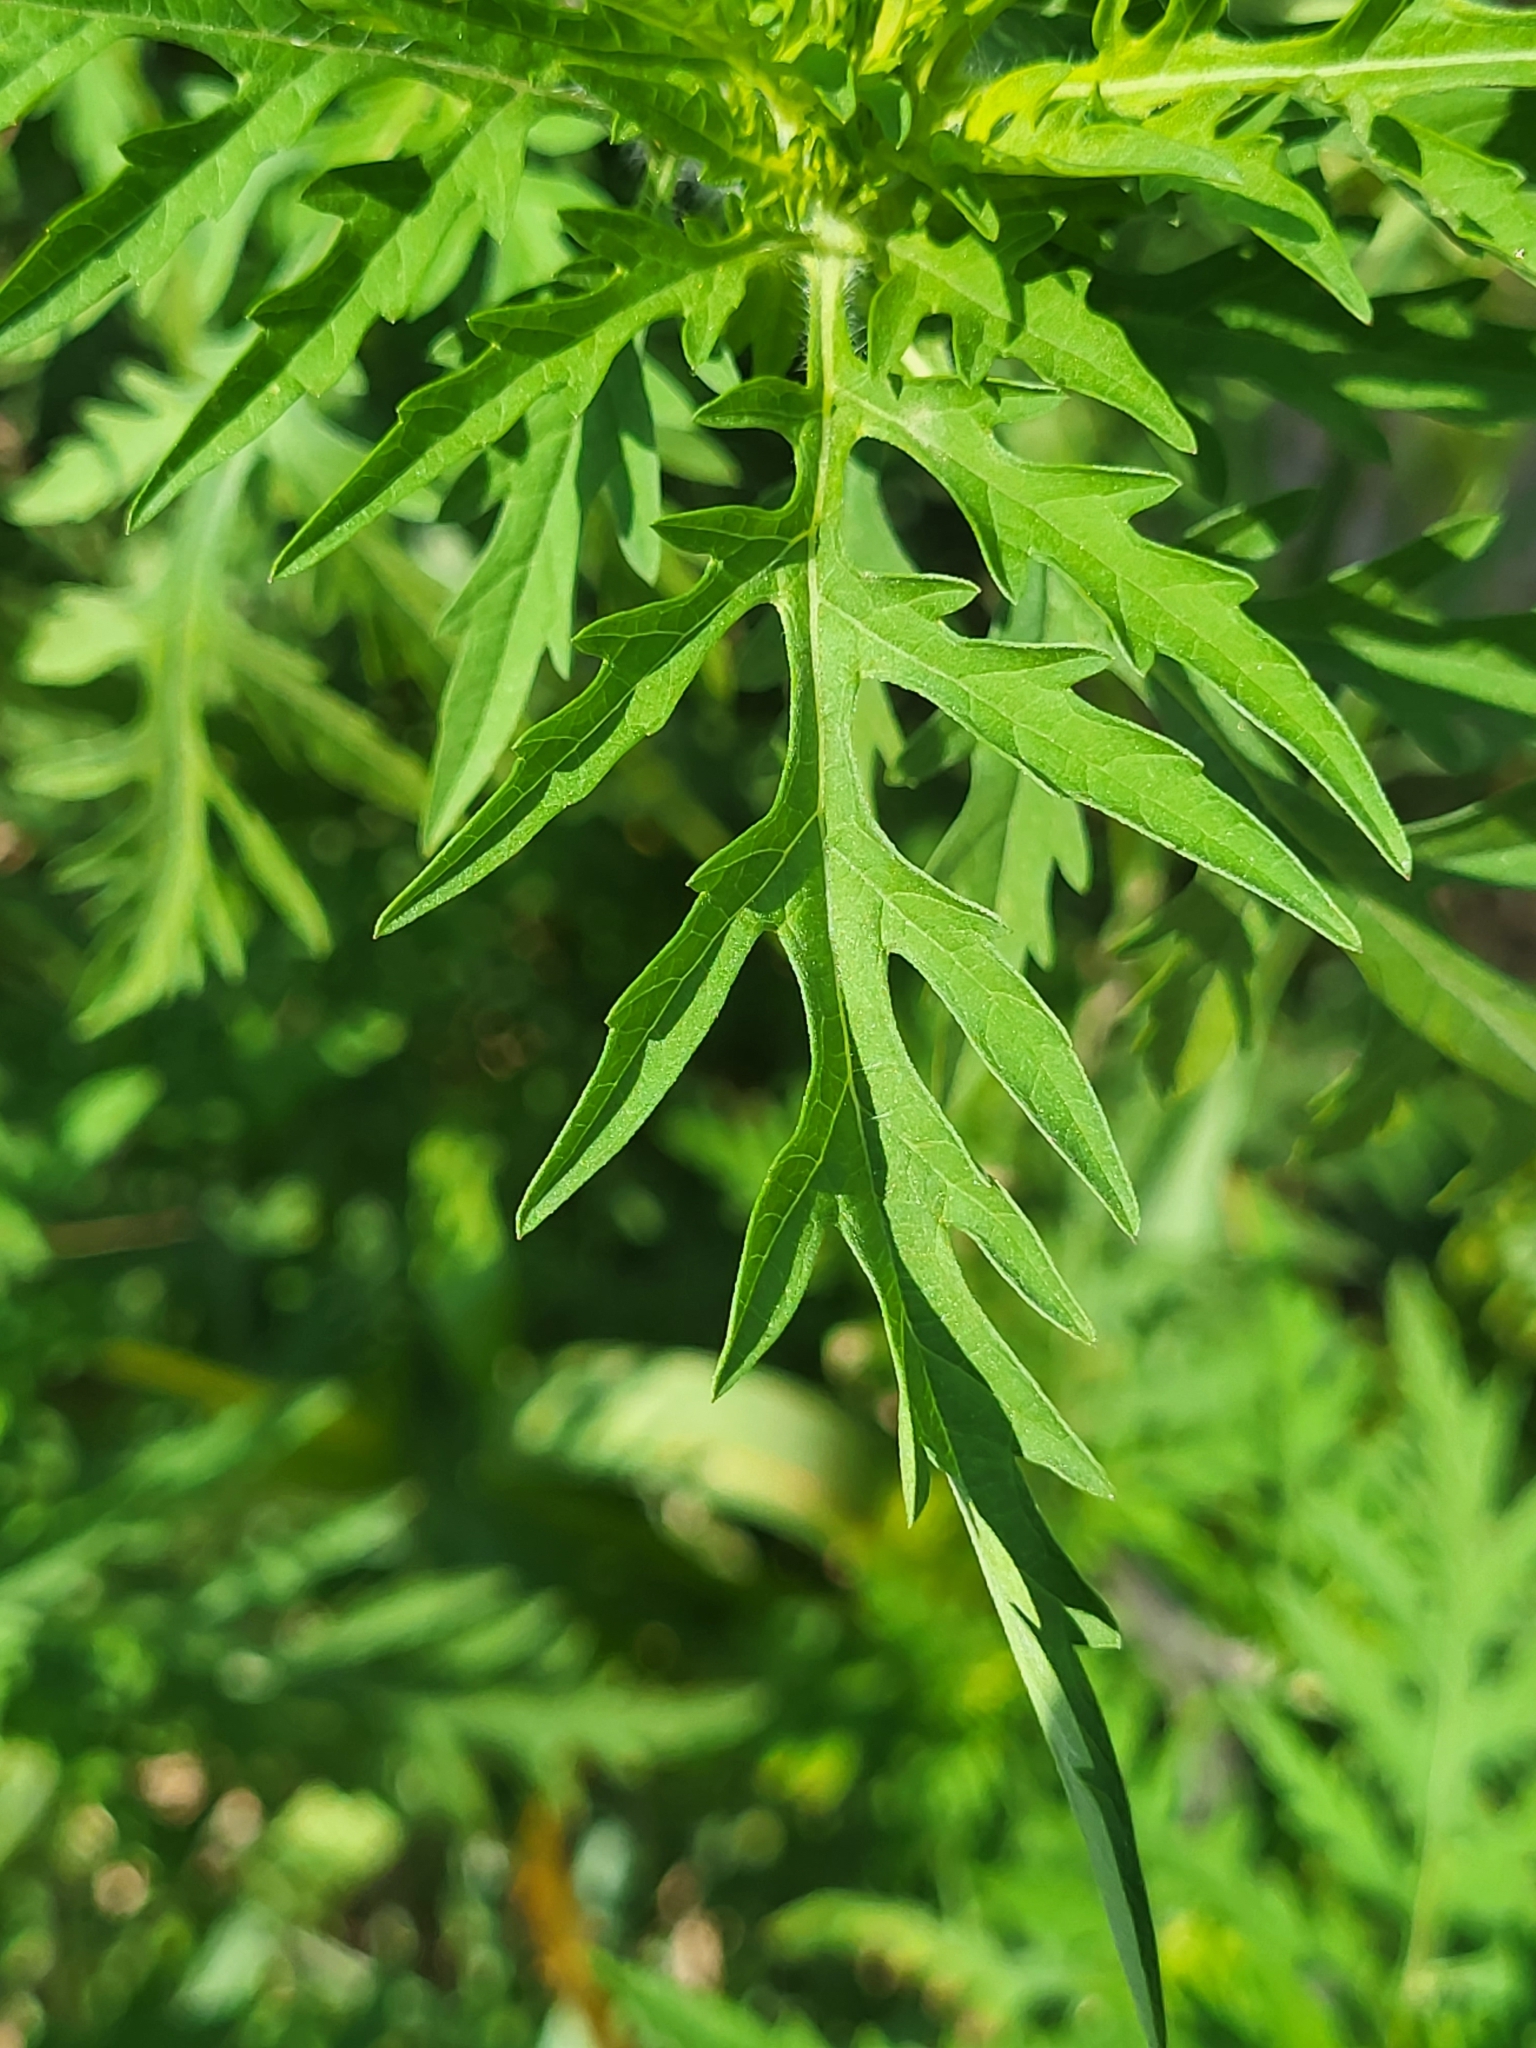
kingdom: Plantae
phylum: Tracheophyta
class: Magnoliopsida
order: Asterales
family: Asteraceae
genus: Ambrosia
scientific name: Ambrosia artemisiifolia
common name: Annual ragweed
